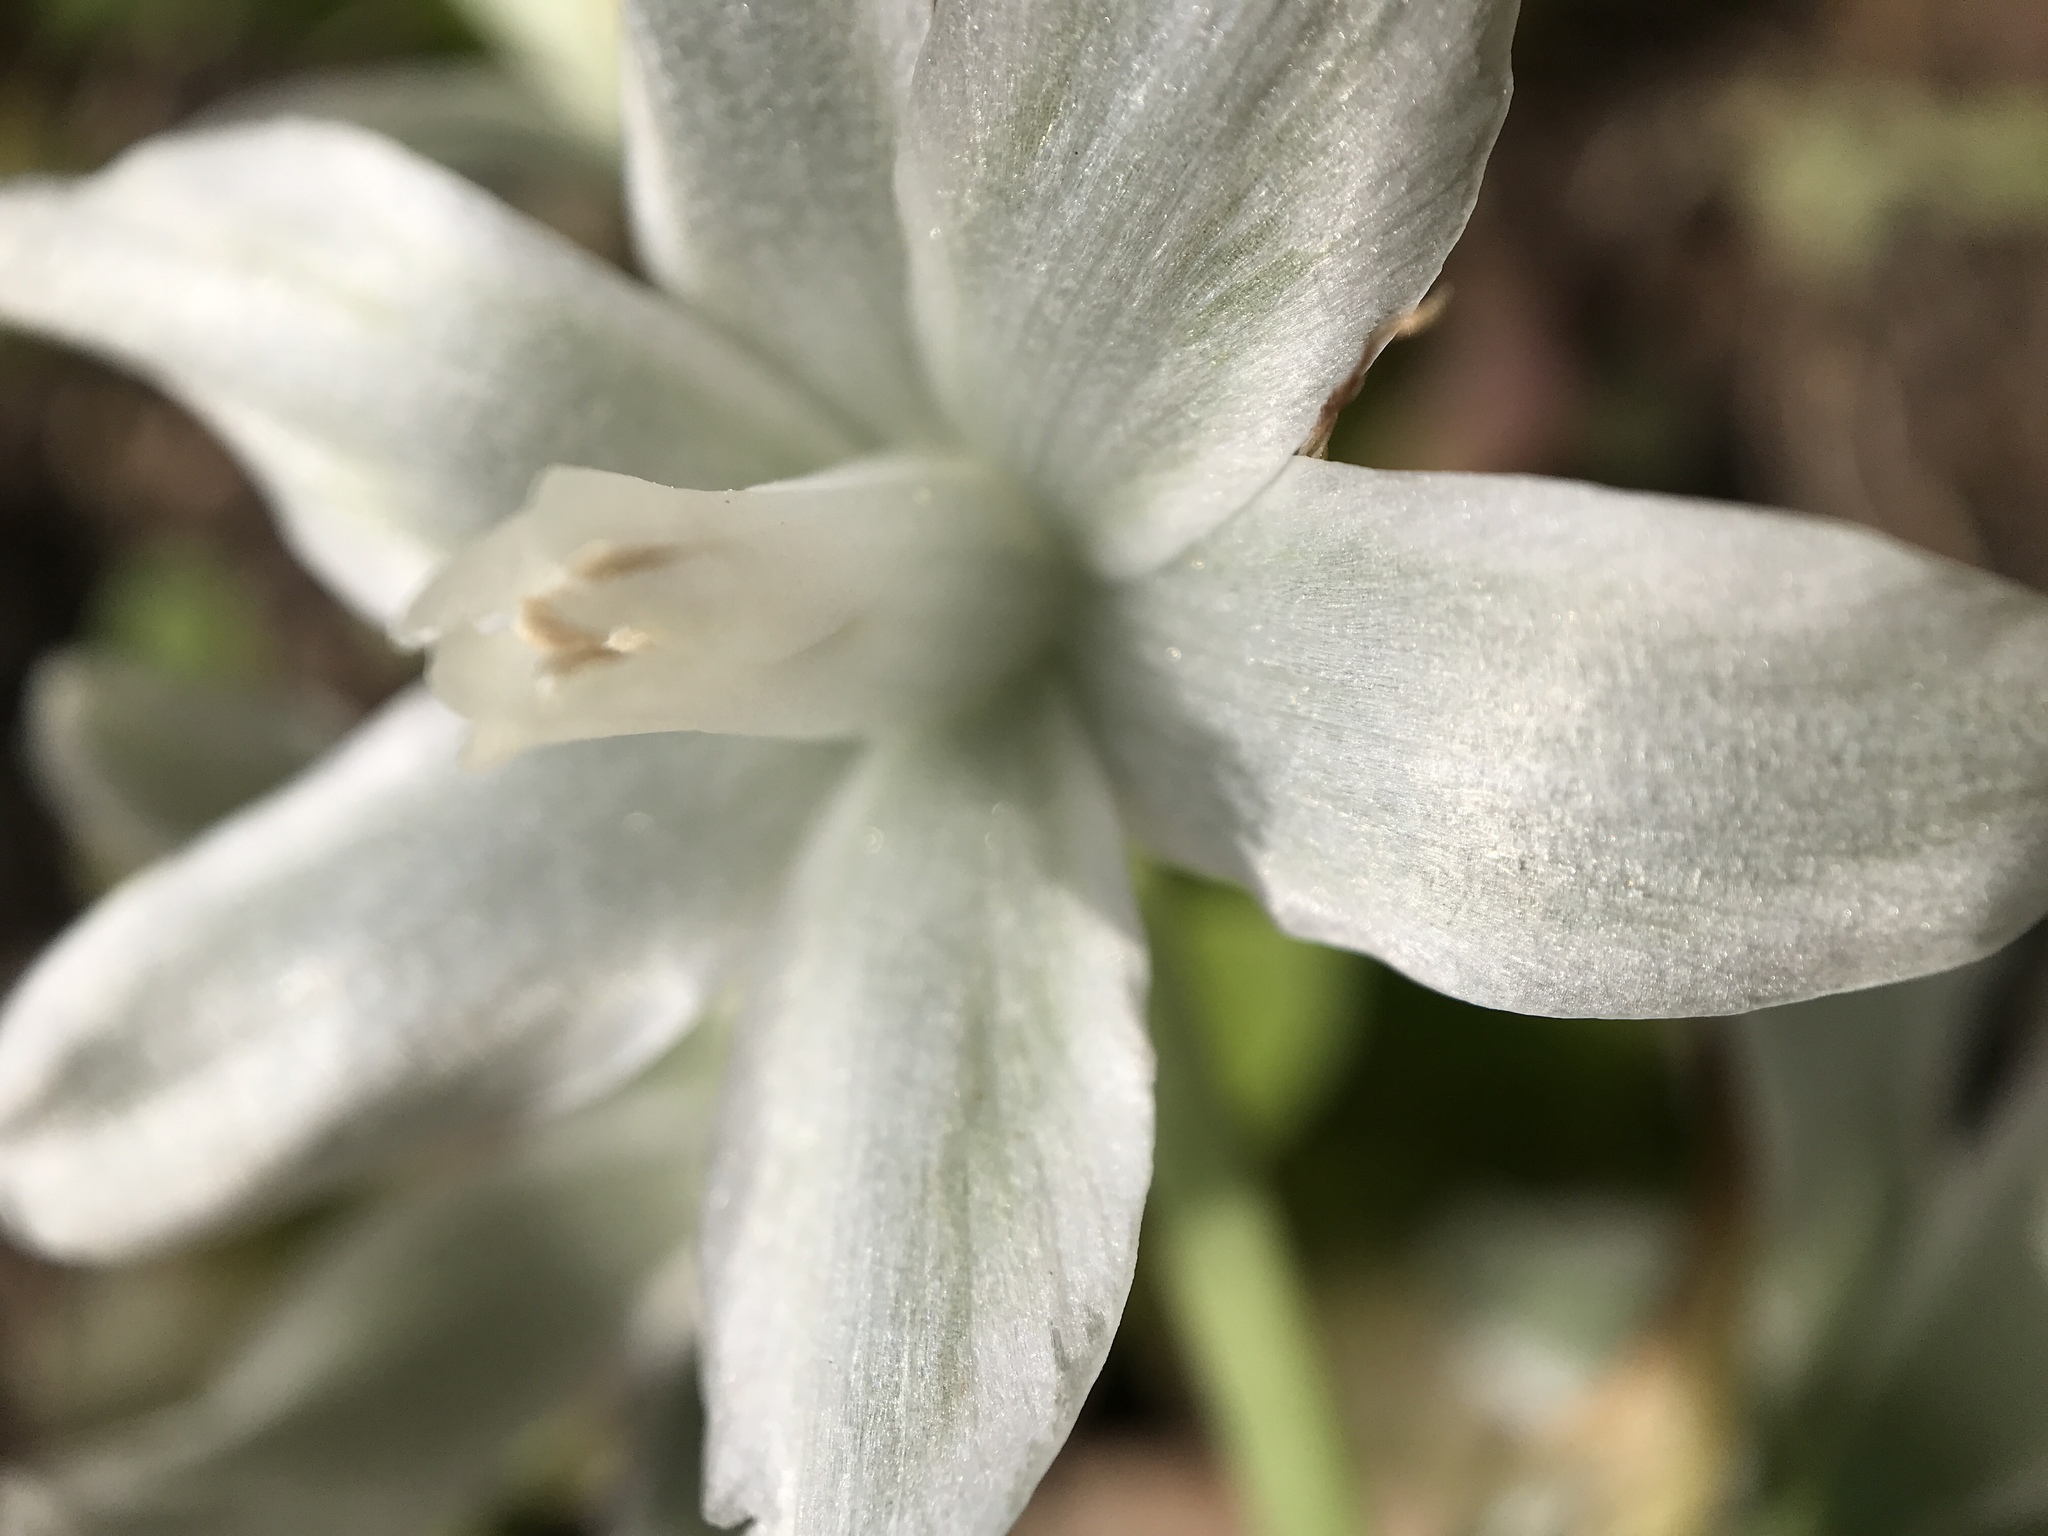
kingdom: Plantae
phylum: Tracheophyta
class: Liliopsida
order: Asparagales
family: Asparagaceae
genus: Ornithogalum
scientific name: Ornithogalum nutans
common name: Drooping star-of-bethlehem
